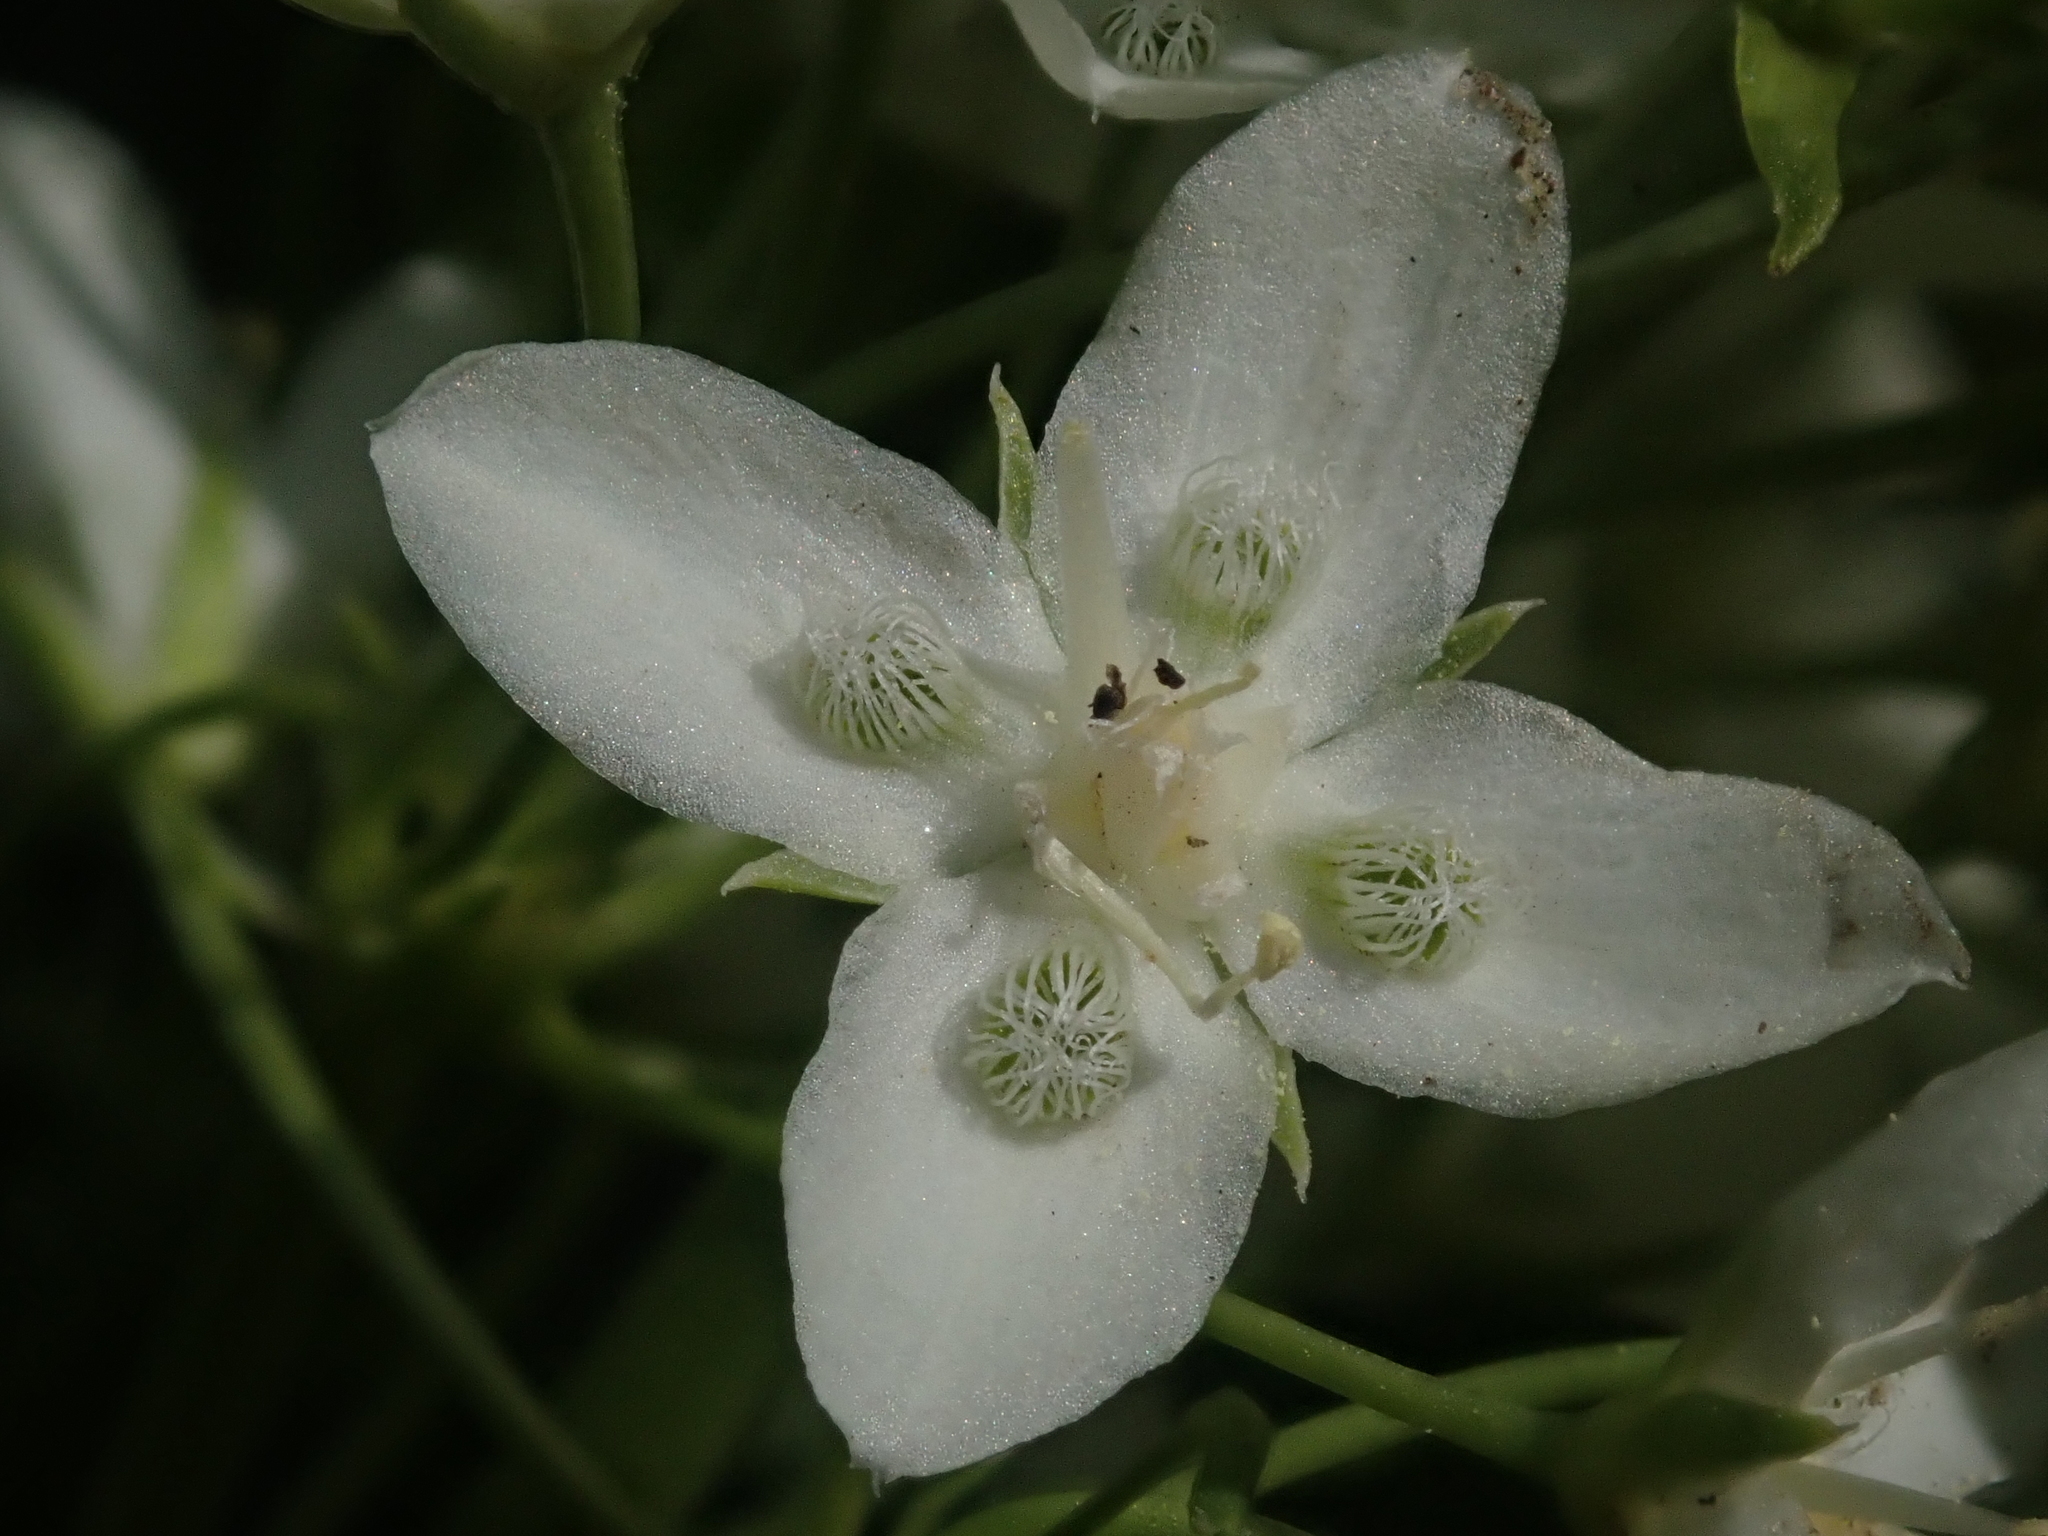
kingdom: Plantae
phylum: Tracheophyta
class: Magnoliopsida
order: Gentianales
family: Gentianaceae
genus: Frasera
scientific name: Frasera montana
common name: White frasera
